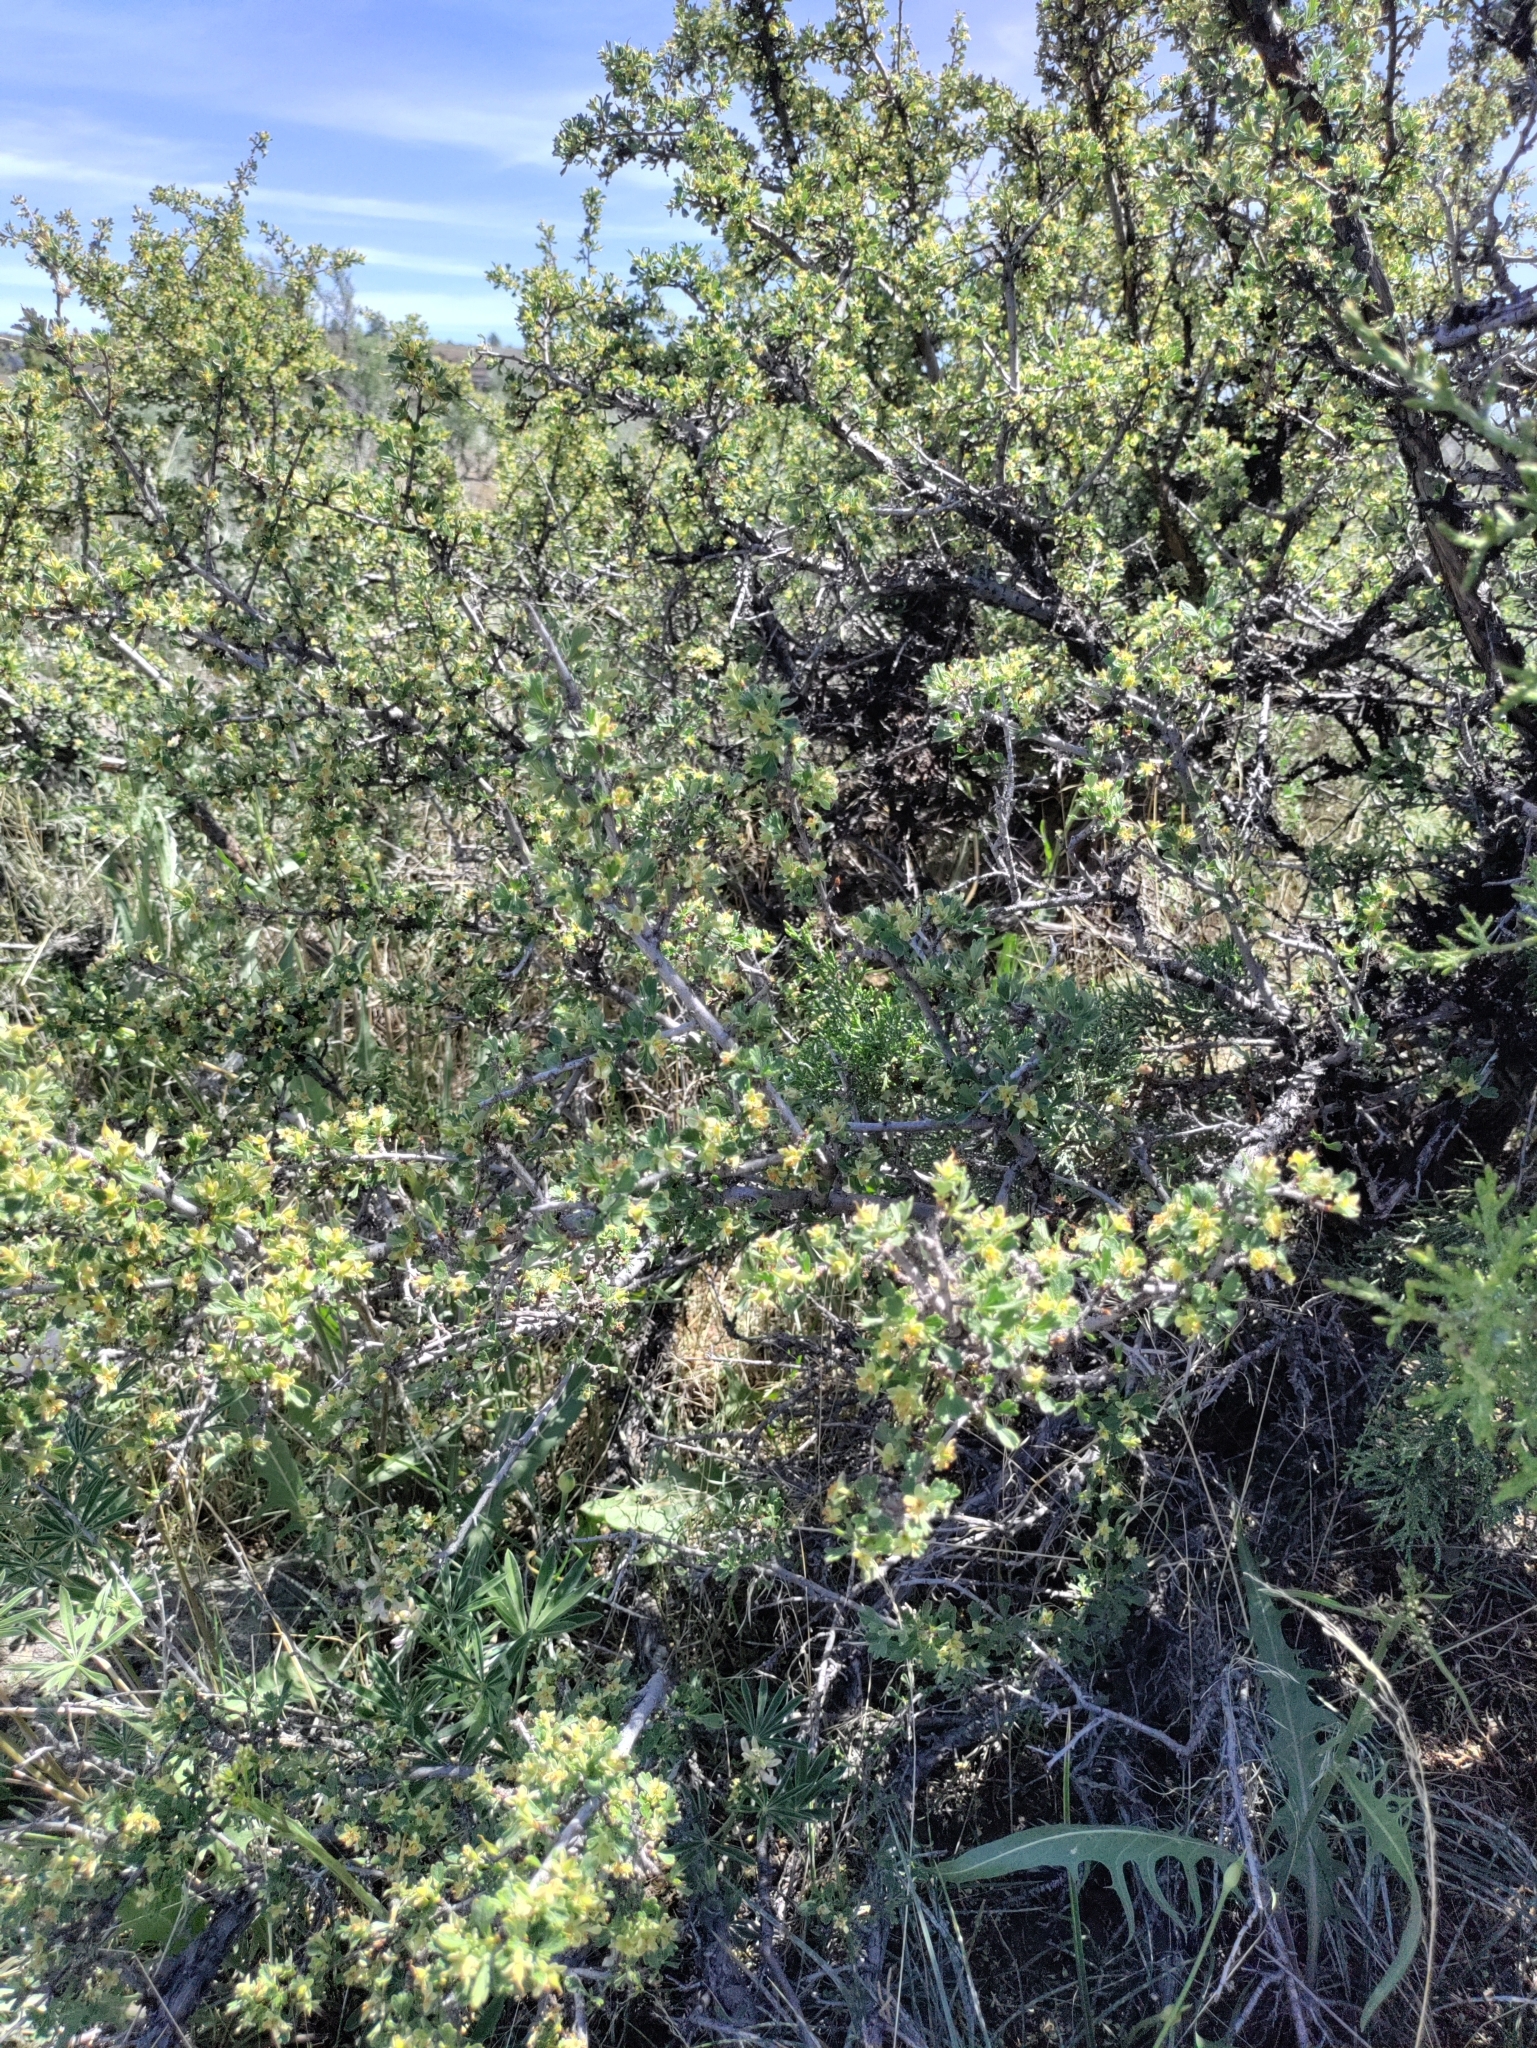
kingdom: Plantae
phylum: Tracheophyta
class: Magnoliopsida
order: Rosales
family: Rosaceae
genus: Purshia
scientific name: Purshia tridentata
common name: Antelope bitterbrush
